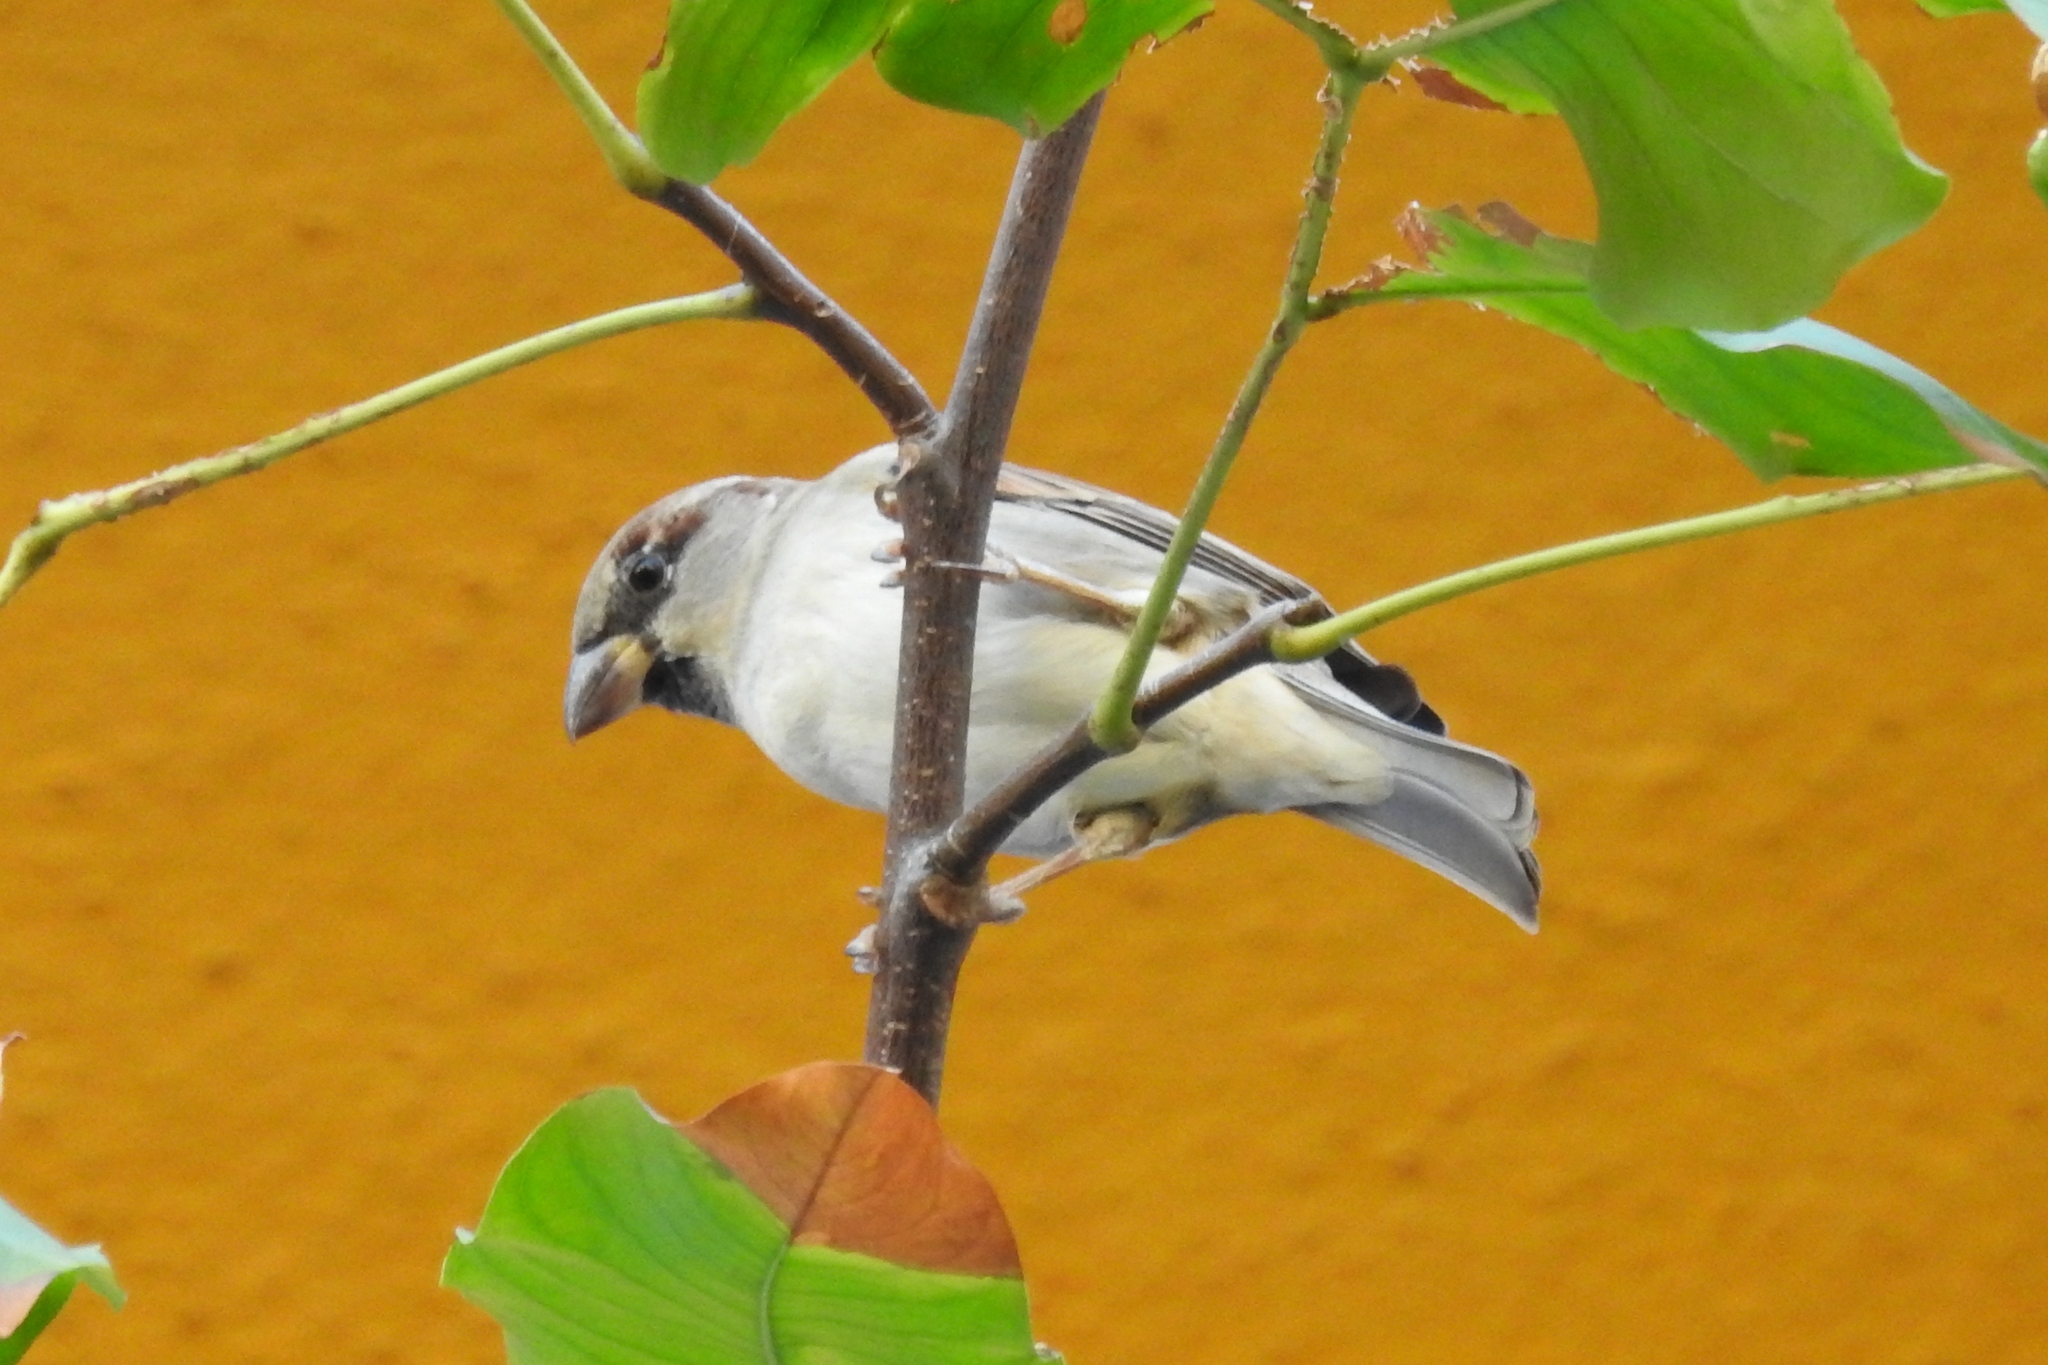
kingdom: Animalia
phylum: Chordata
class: Aves
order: Passeriformes
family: Passeridae
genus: Passer
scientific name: Passer domesticus
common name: House sparrow
